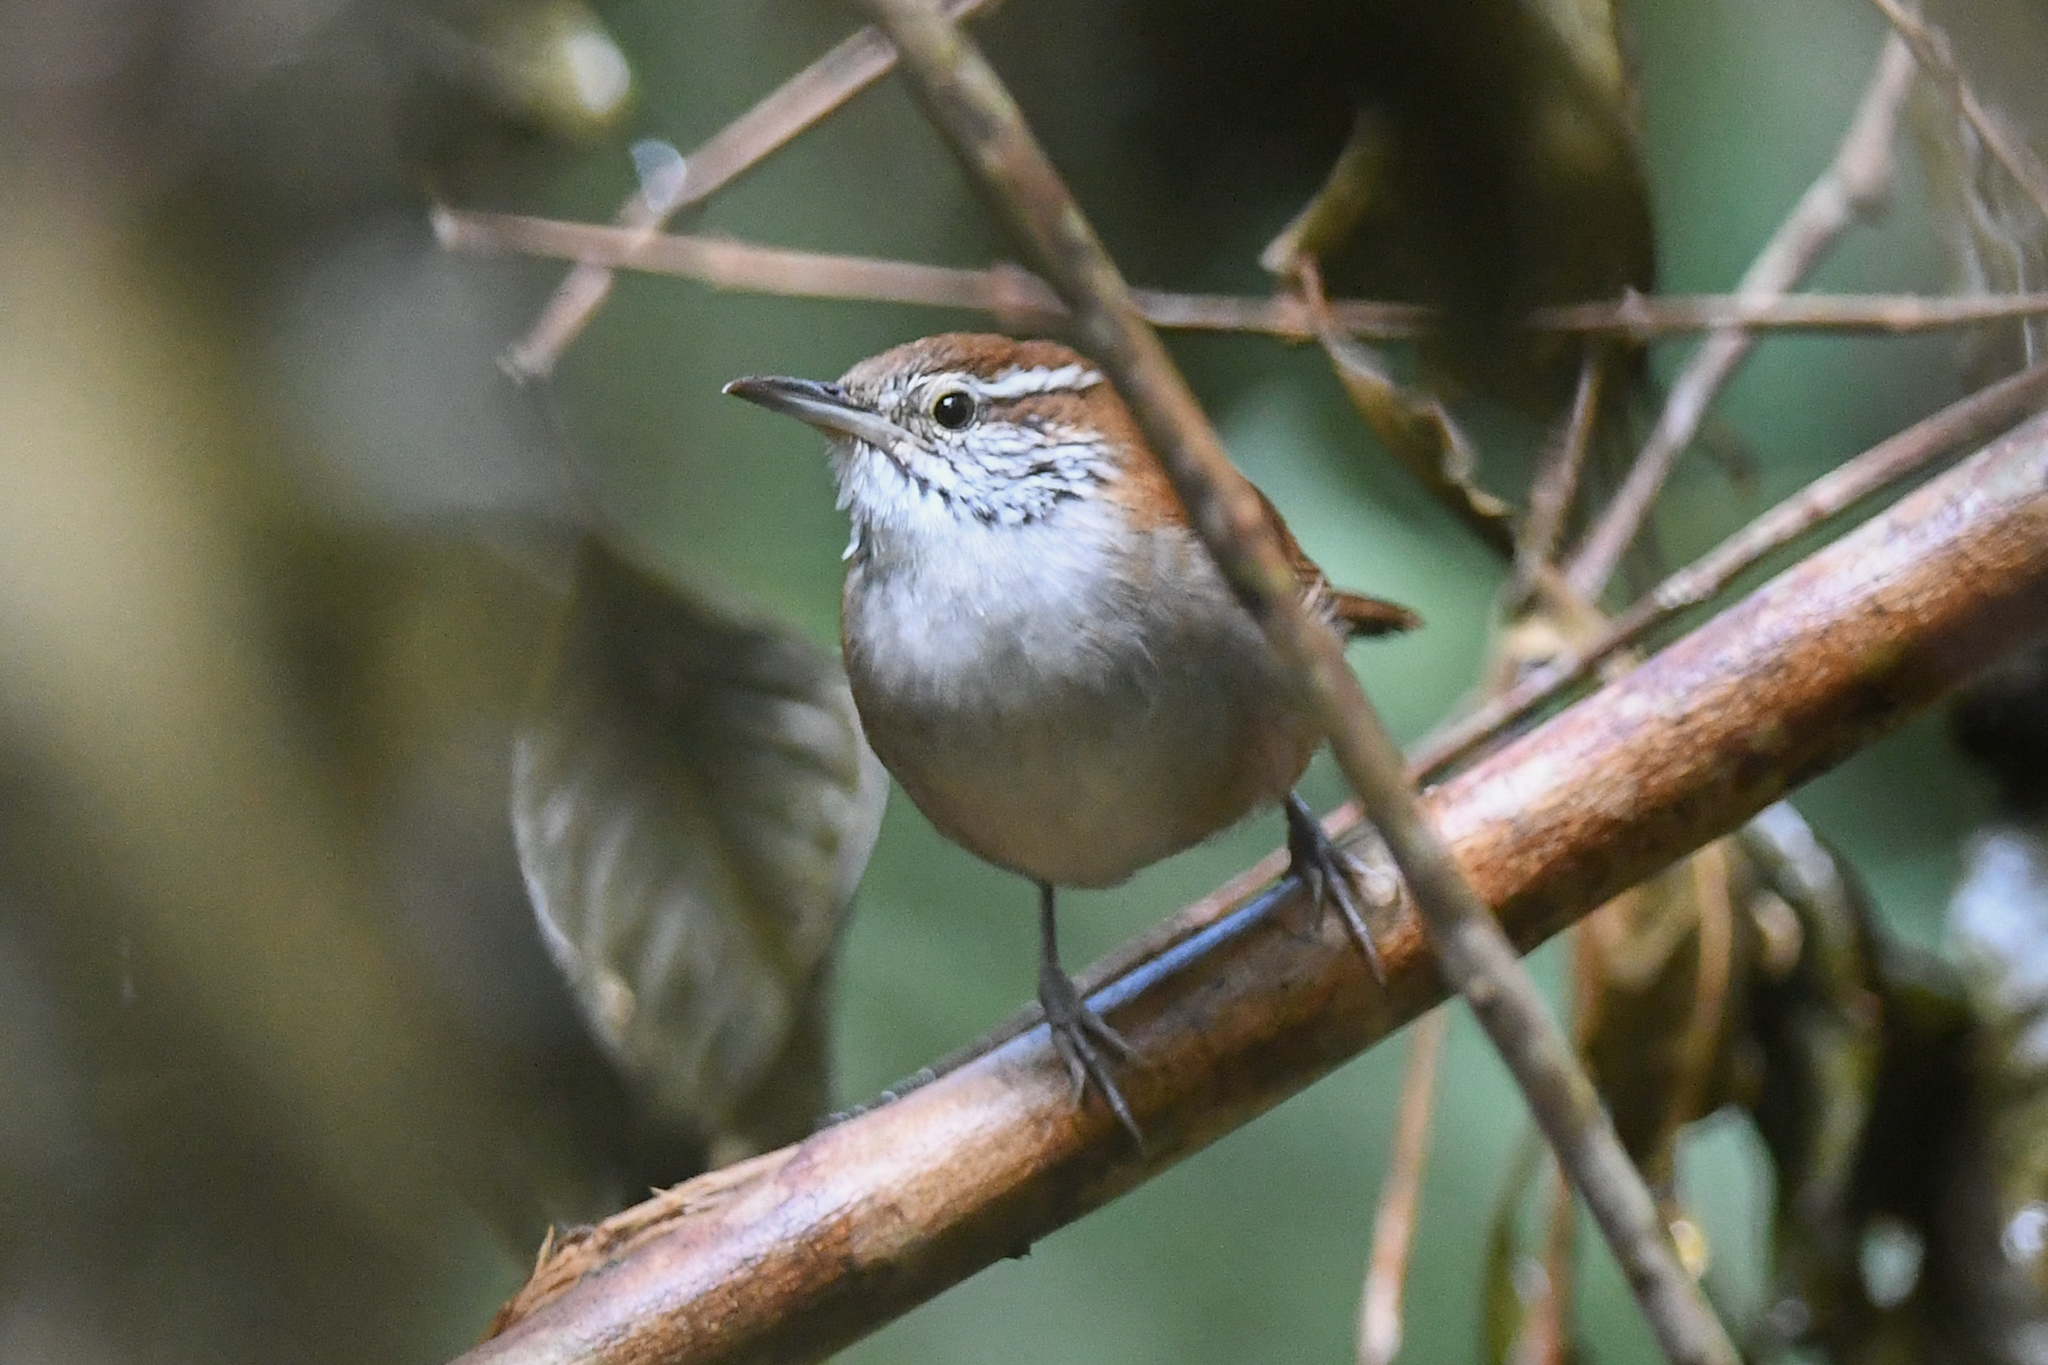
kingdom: Animalia
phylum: Chordata
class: Aves
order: Passeriformes
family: Troglodytidae
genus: Thryophilus
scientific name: Thryophilus rufalbus
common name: Rufous-and-white wren
